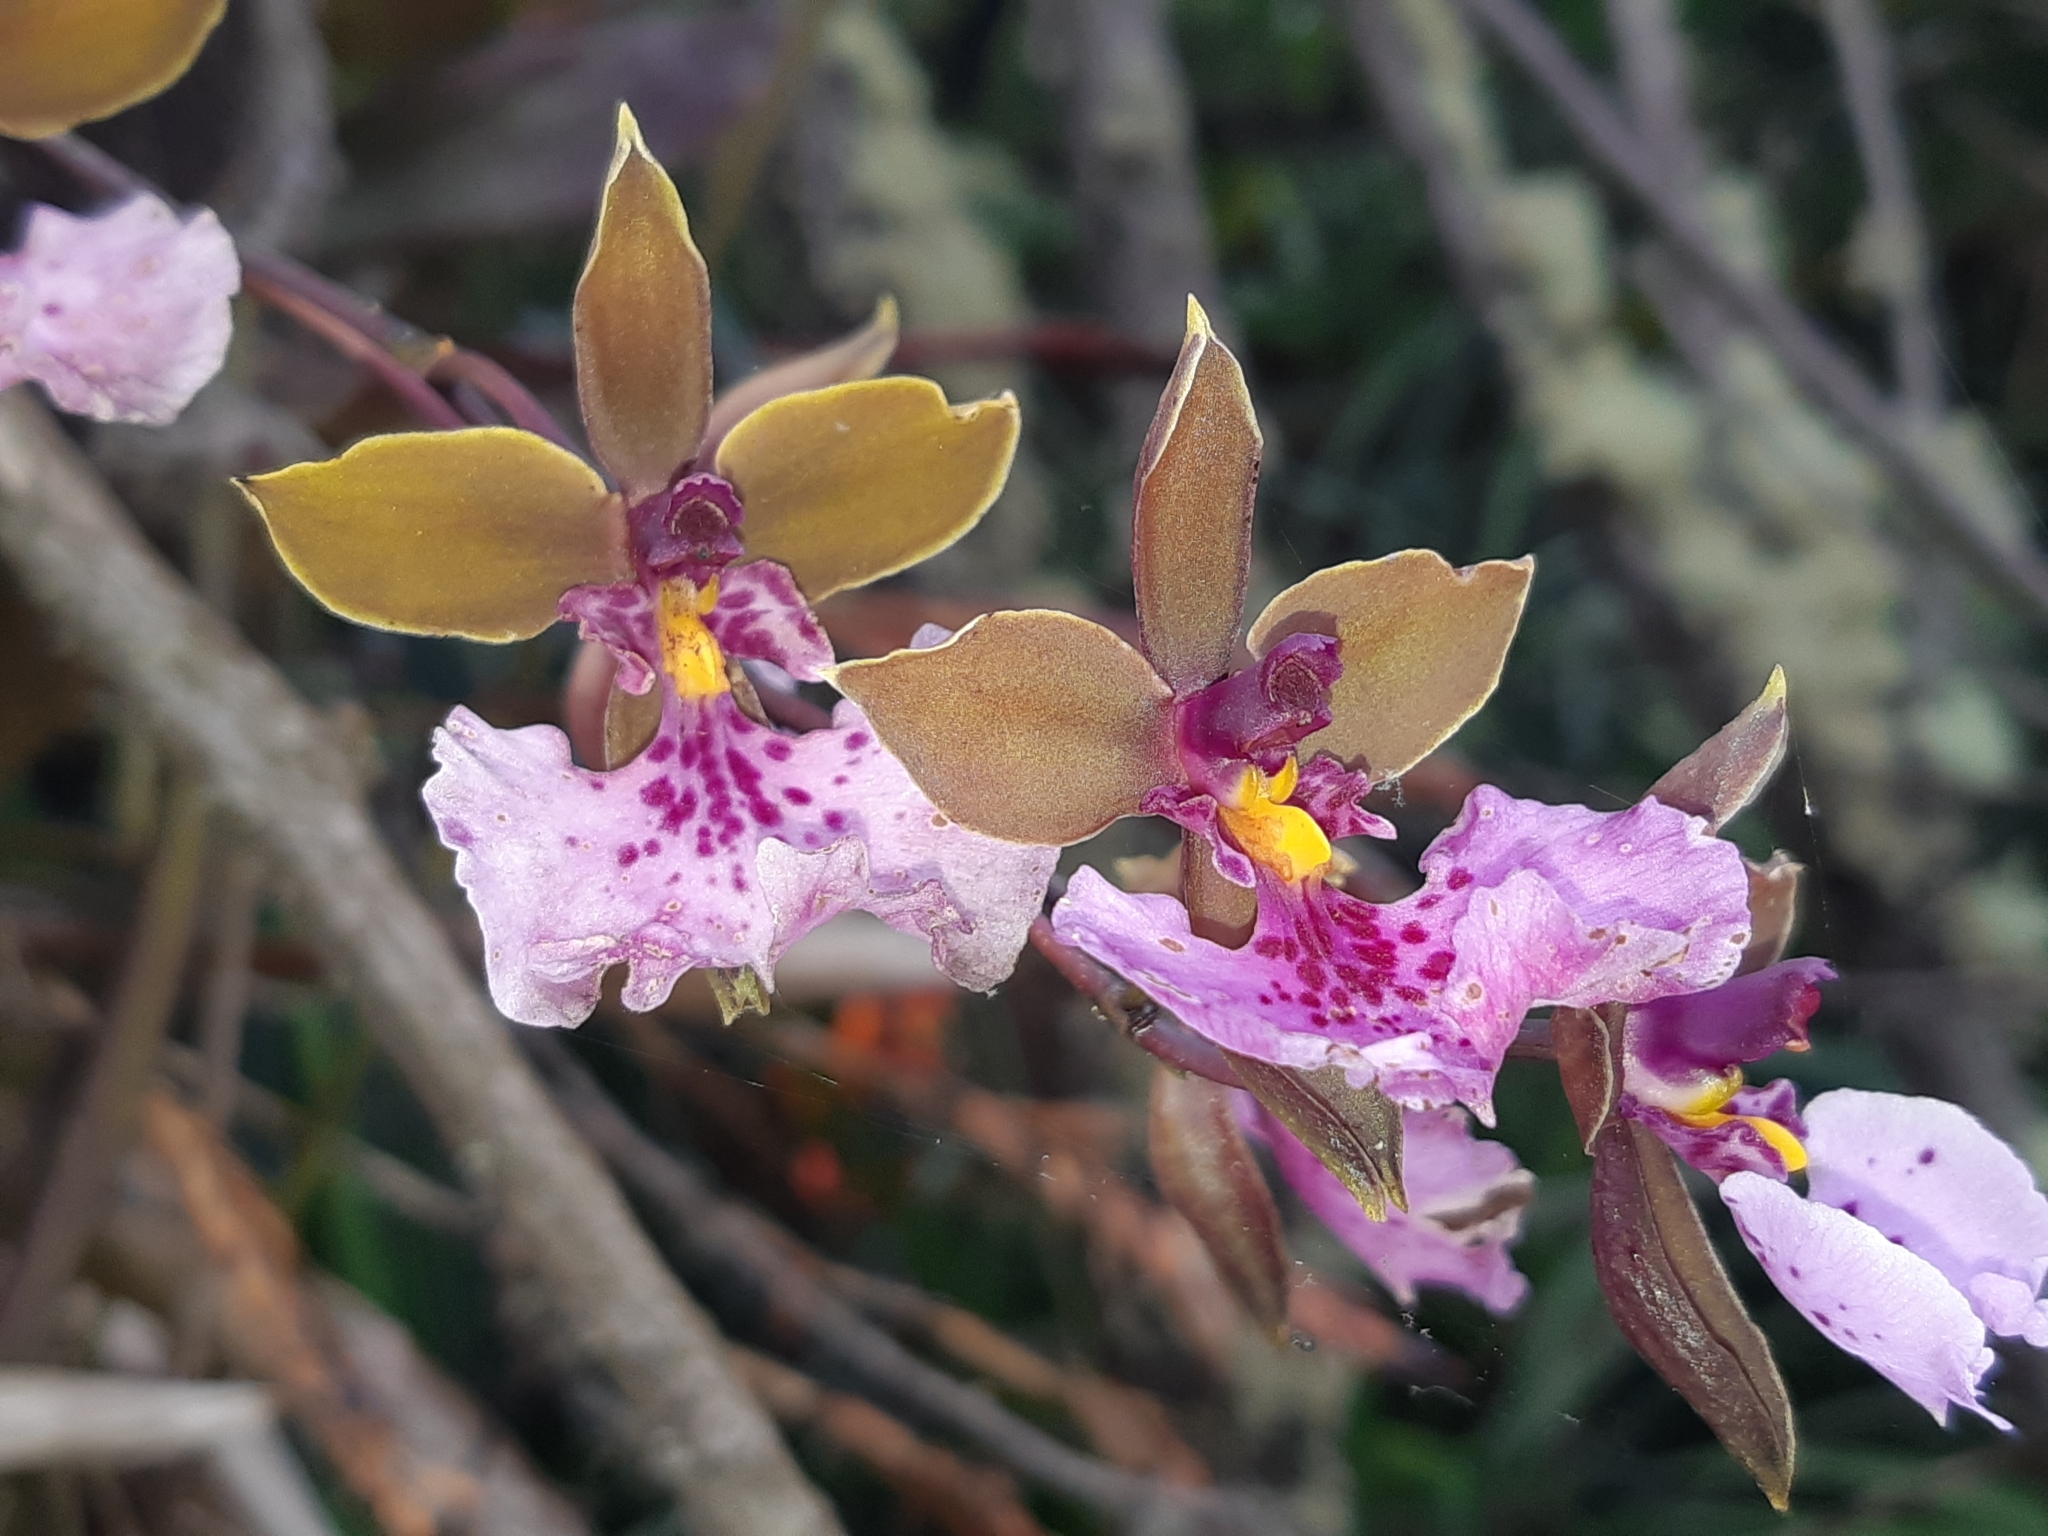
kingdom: Plantae
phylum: Tracheophyta
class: Liliopsida
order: Asparagales
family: Orchidaceae
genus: Caucaea
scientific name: Caucaea olivacea
